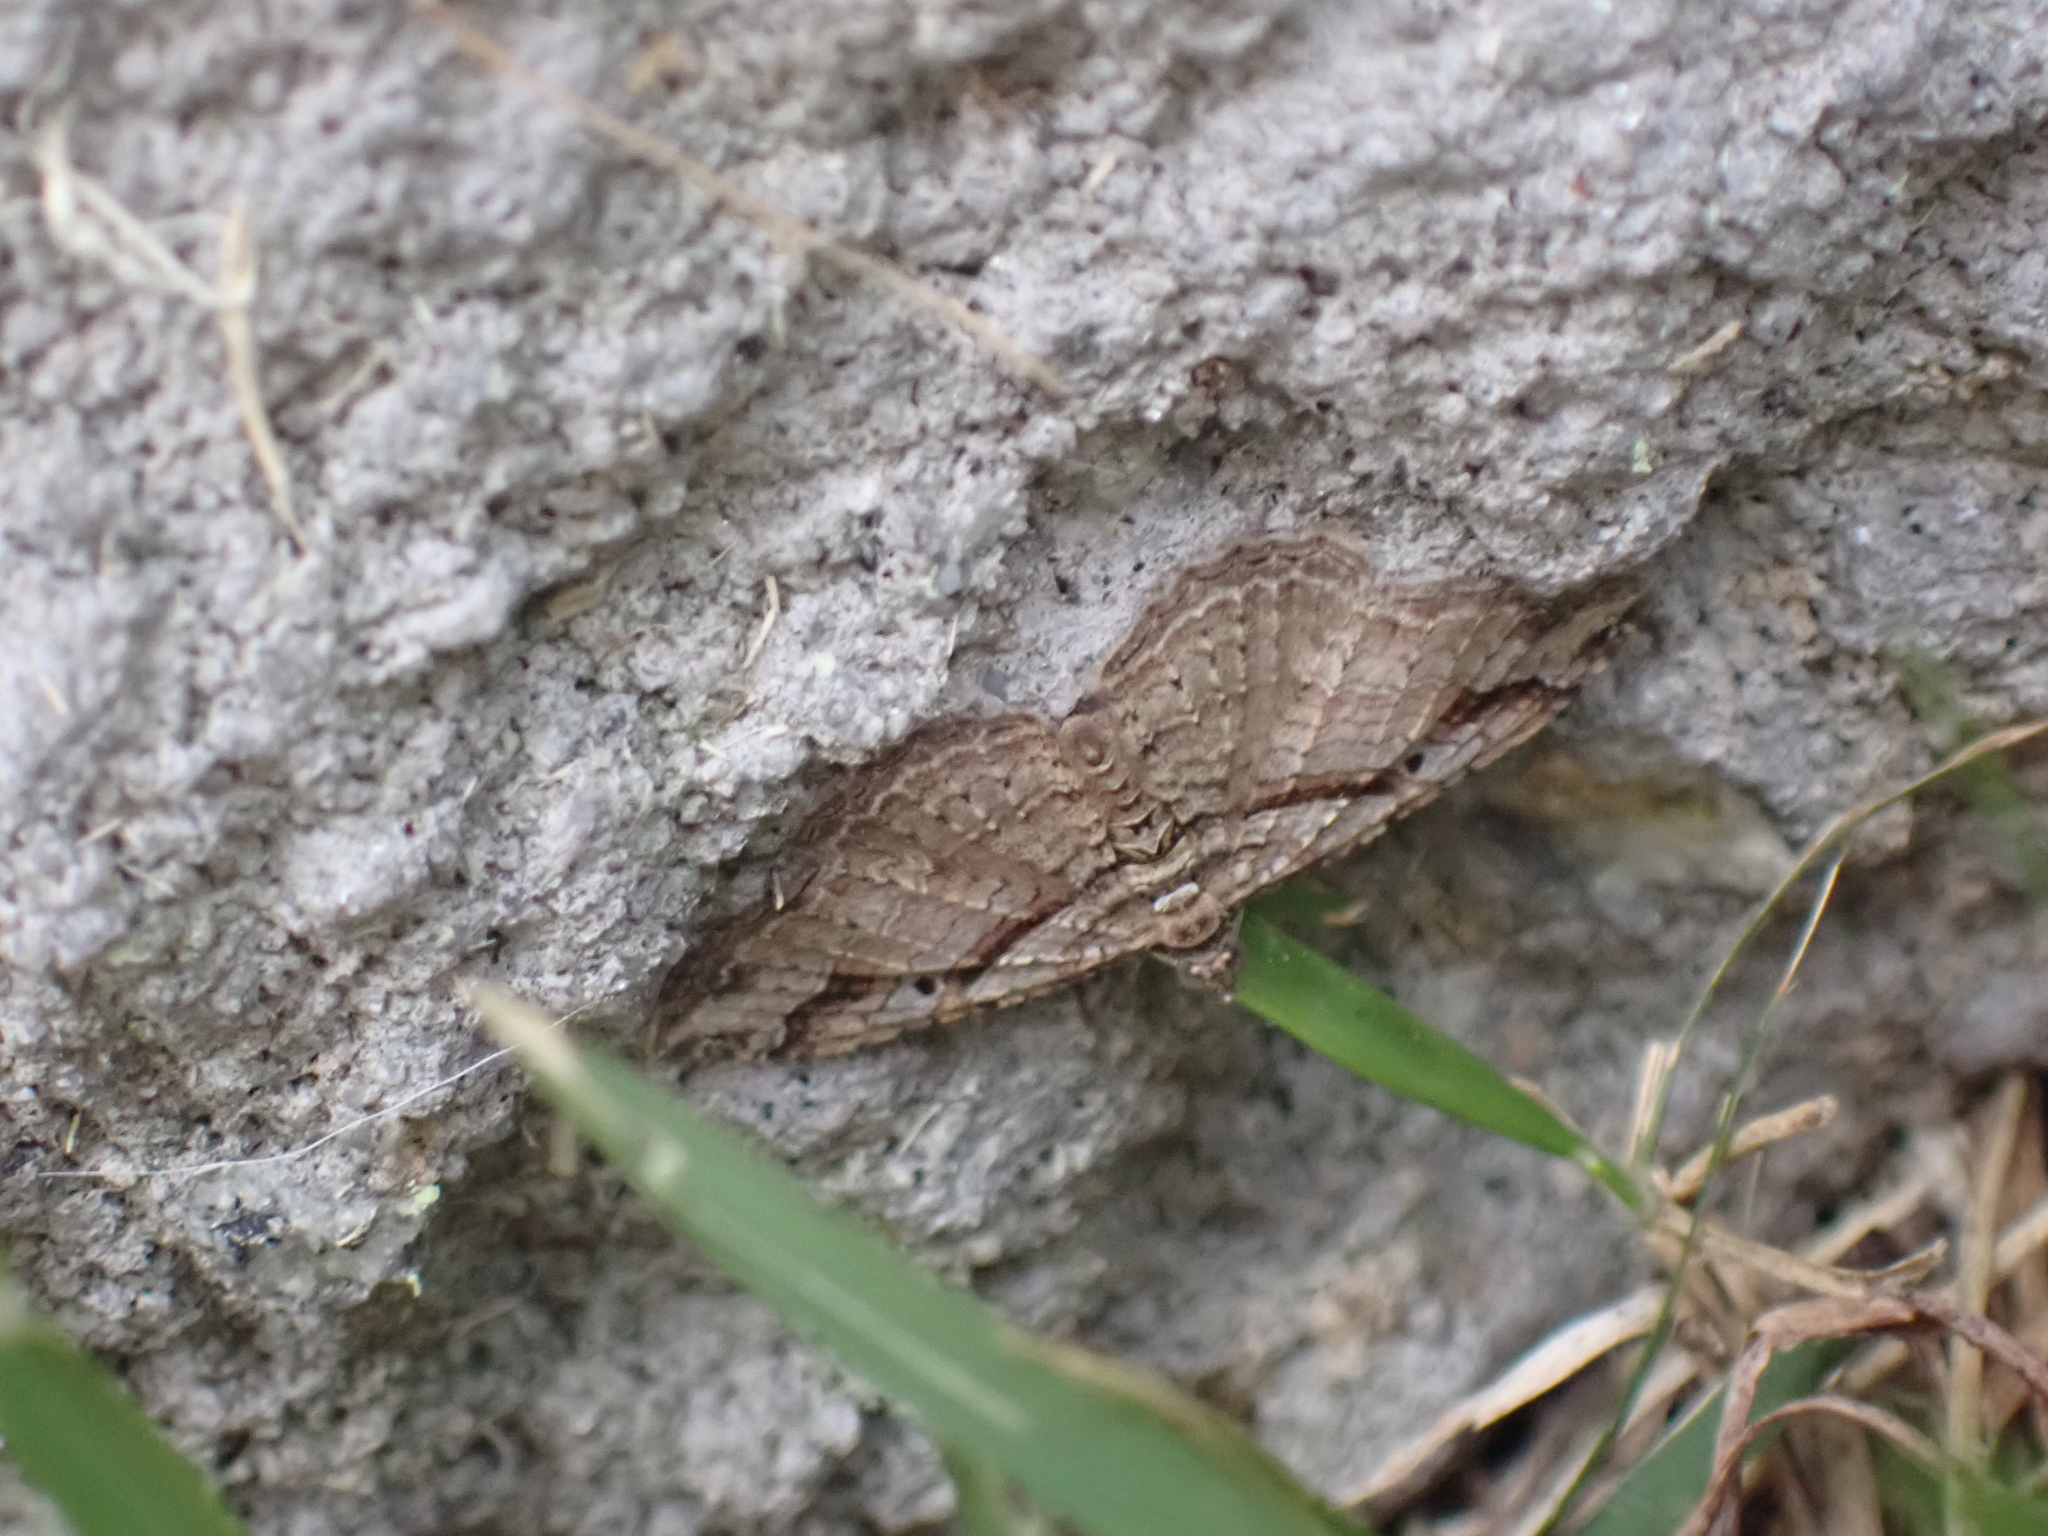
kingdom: Animalia
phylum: Arthropoda
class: Insecta
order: Lepidoptera
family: Geometridae
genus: Costaconvexa
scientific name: Costaconvexa centrostrigaria
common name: Bent-line carpet
